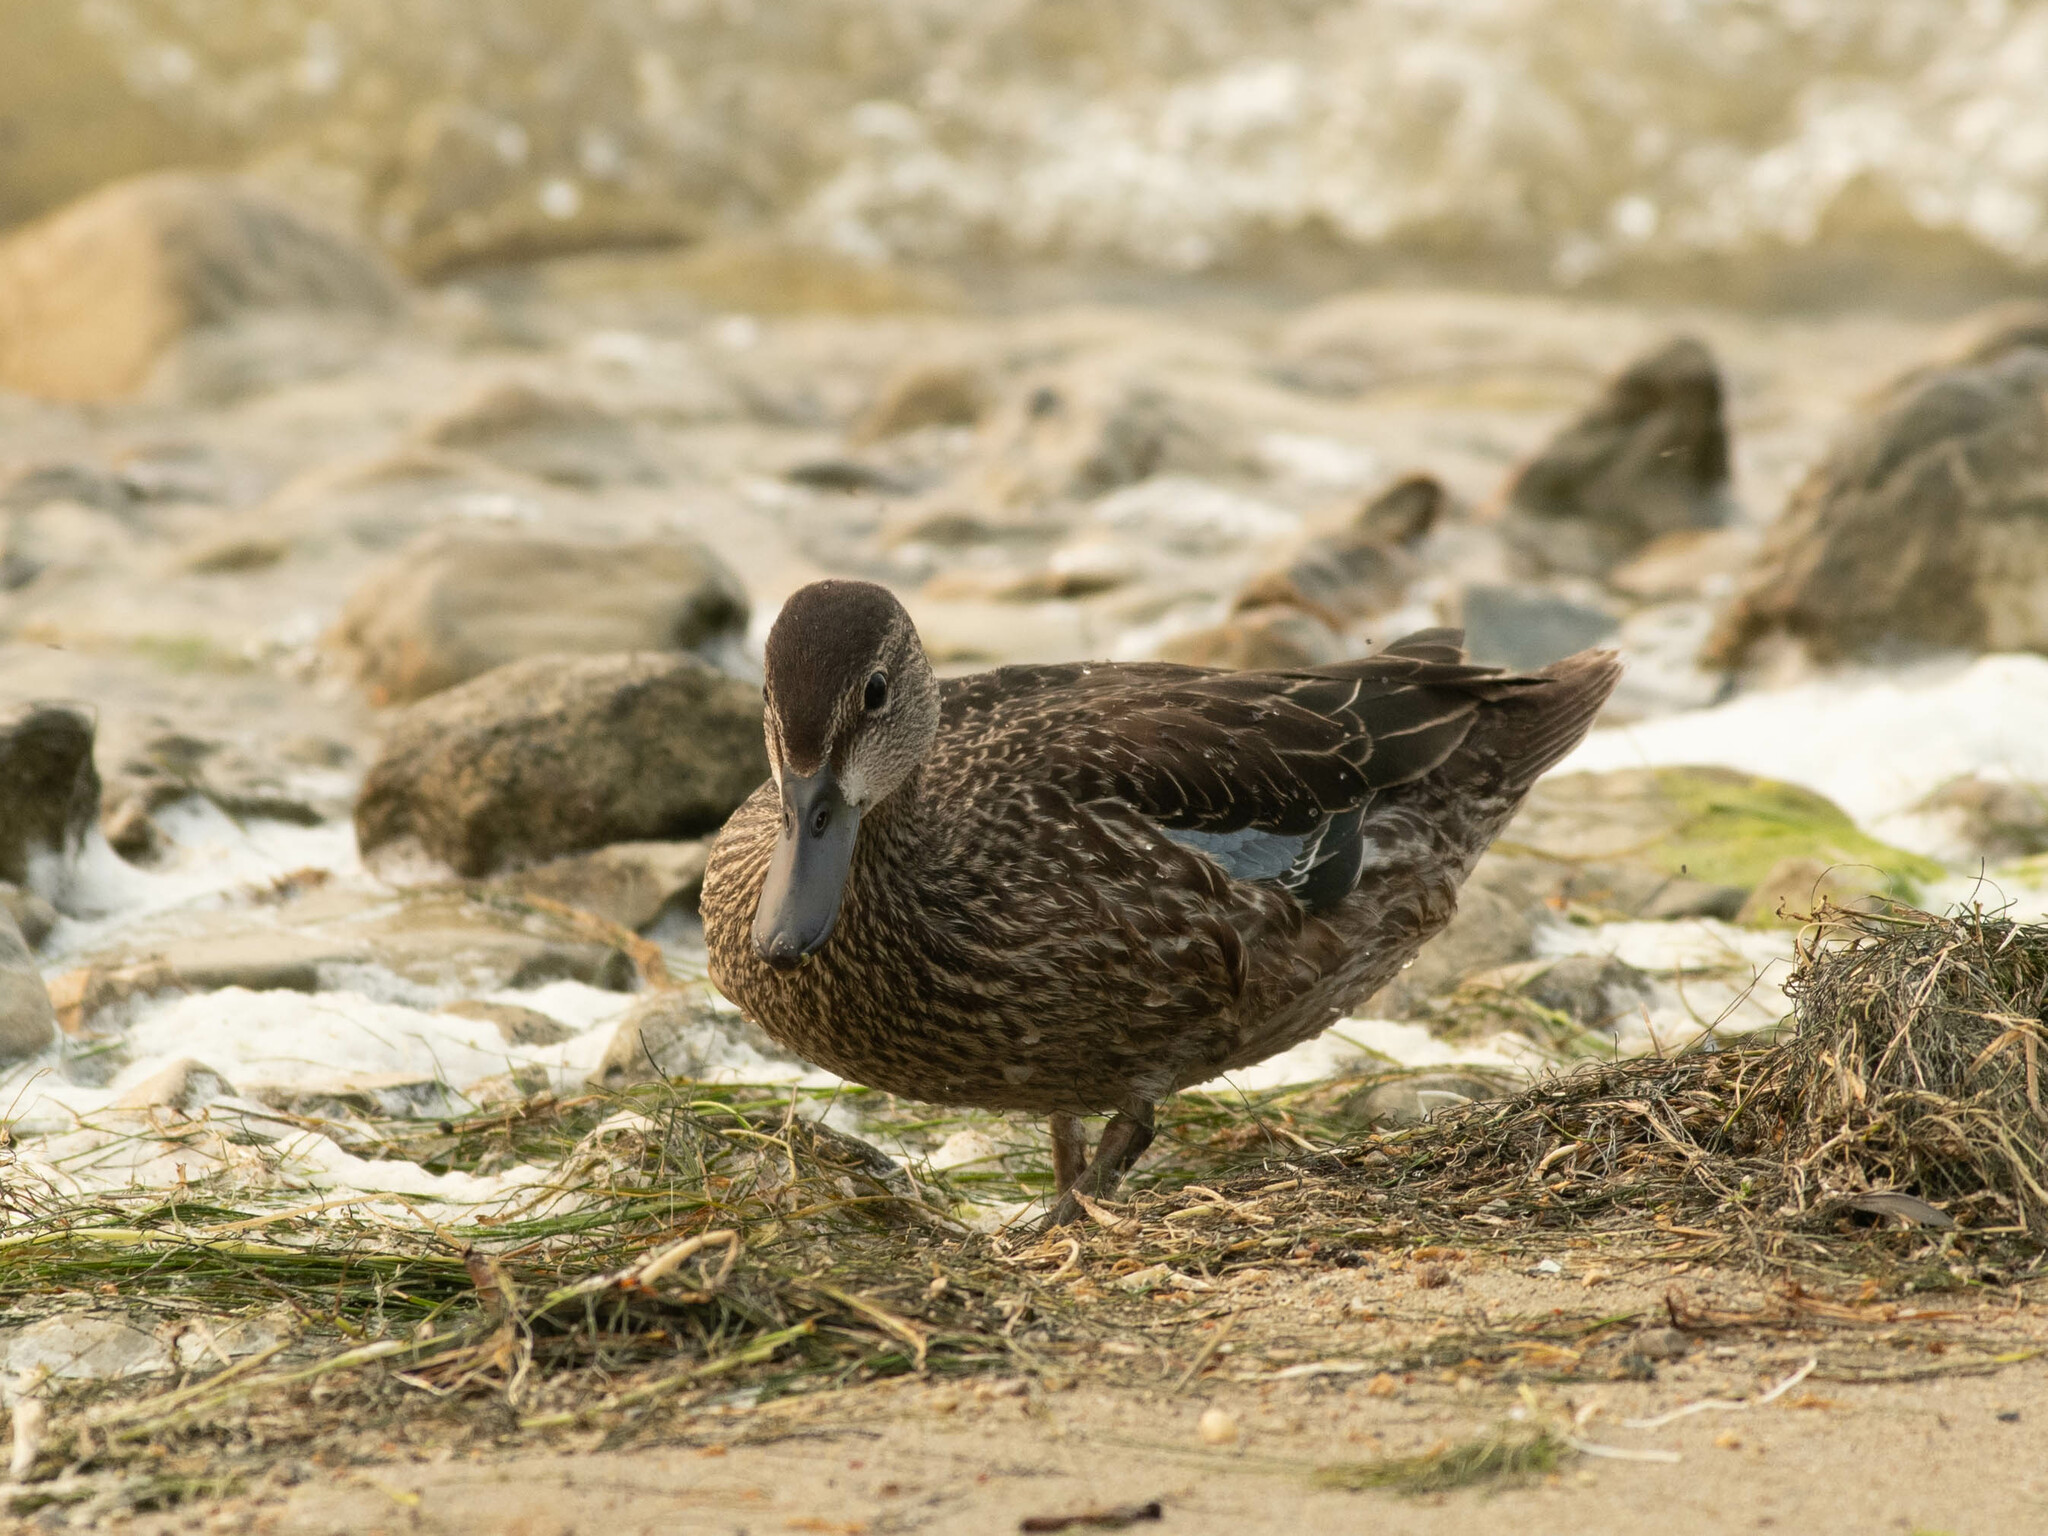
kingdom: Animalia
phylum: Chordata
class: Aves
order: Anseriformes
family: Anatidae
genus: Spatula
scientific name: Spatula discors
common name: Blue-winged teal
